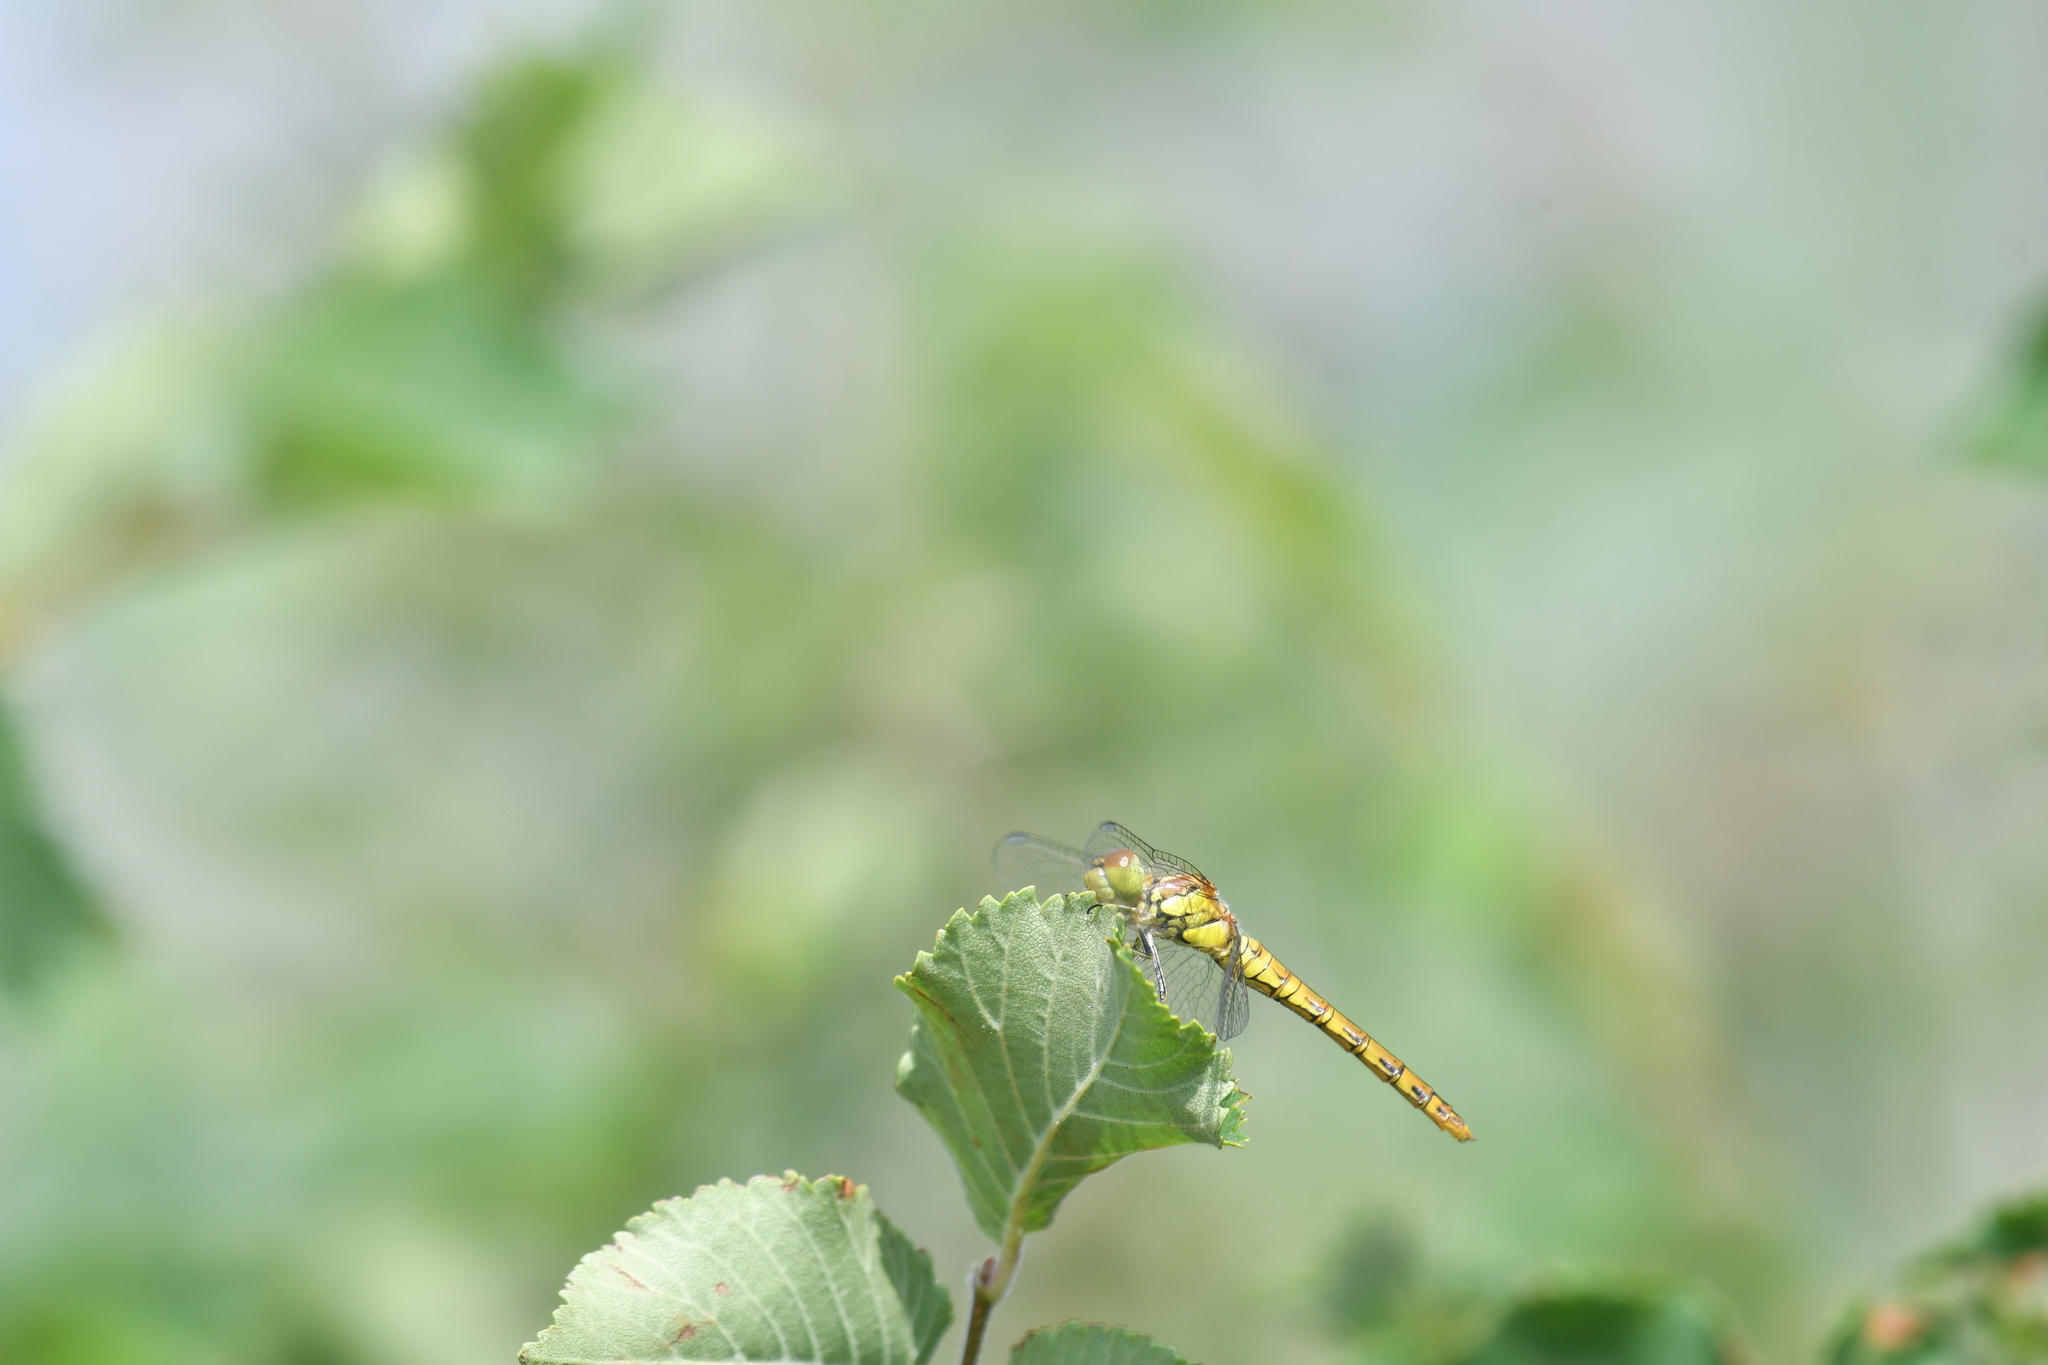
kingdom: Animalia
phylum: Arthropoda
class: Insecta
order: Odonata
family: Libellulidae
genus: Sympetrum
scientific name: Sympetrum striolatum
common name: Common darter
